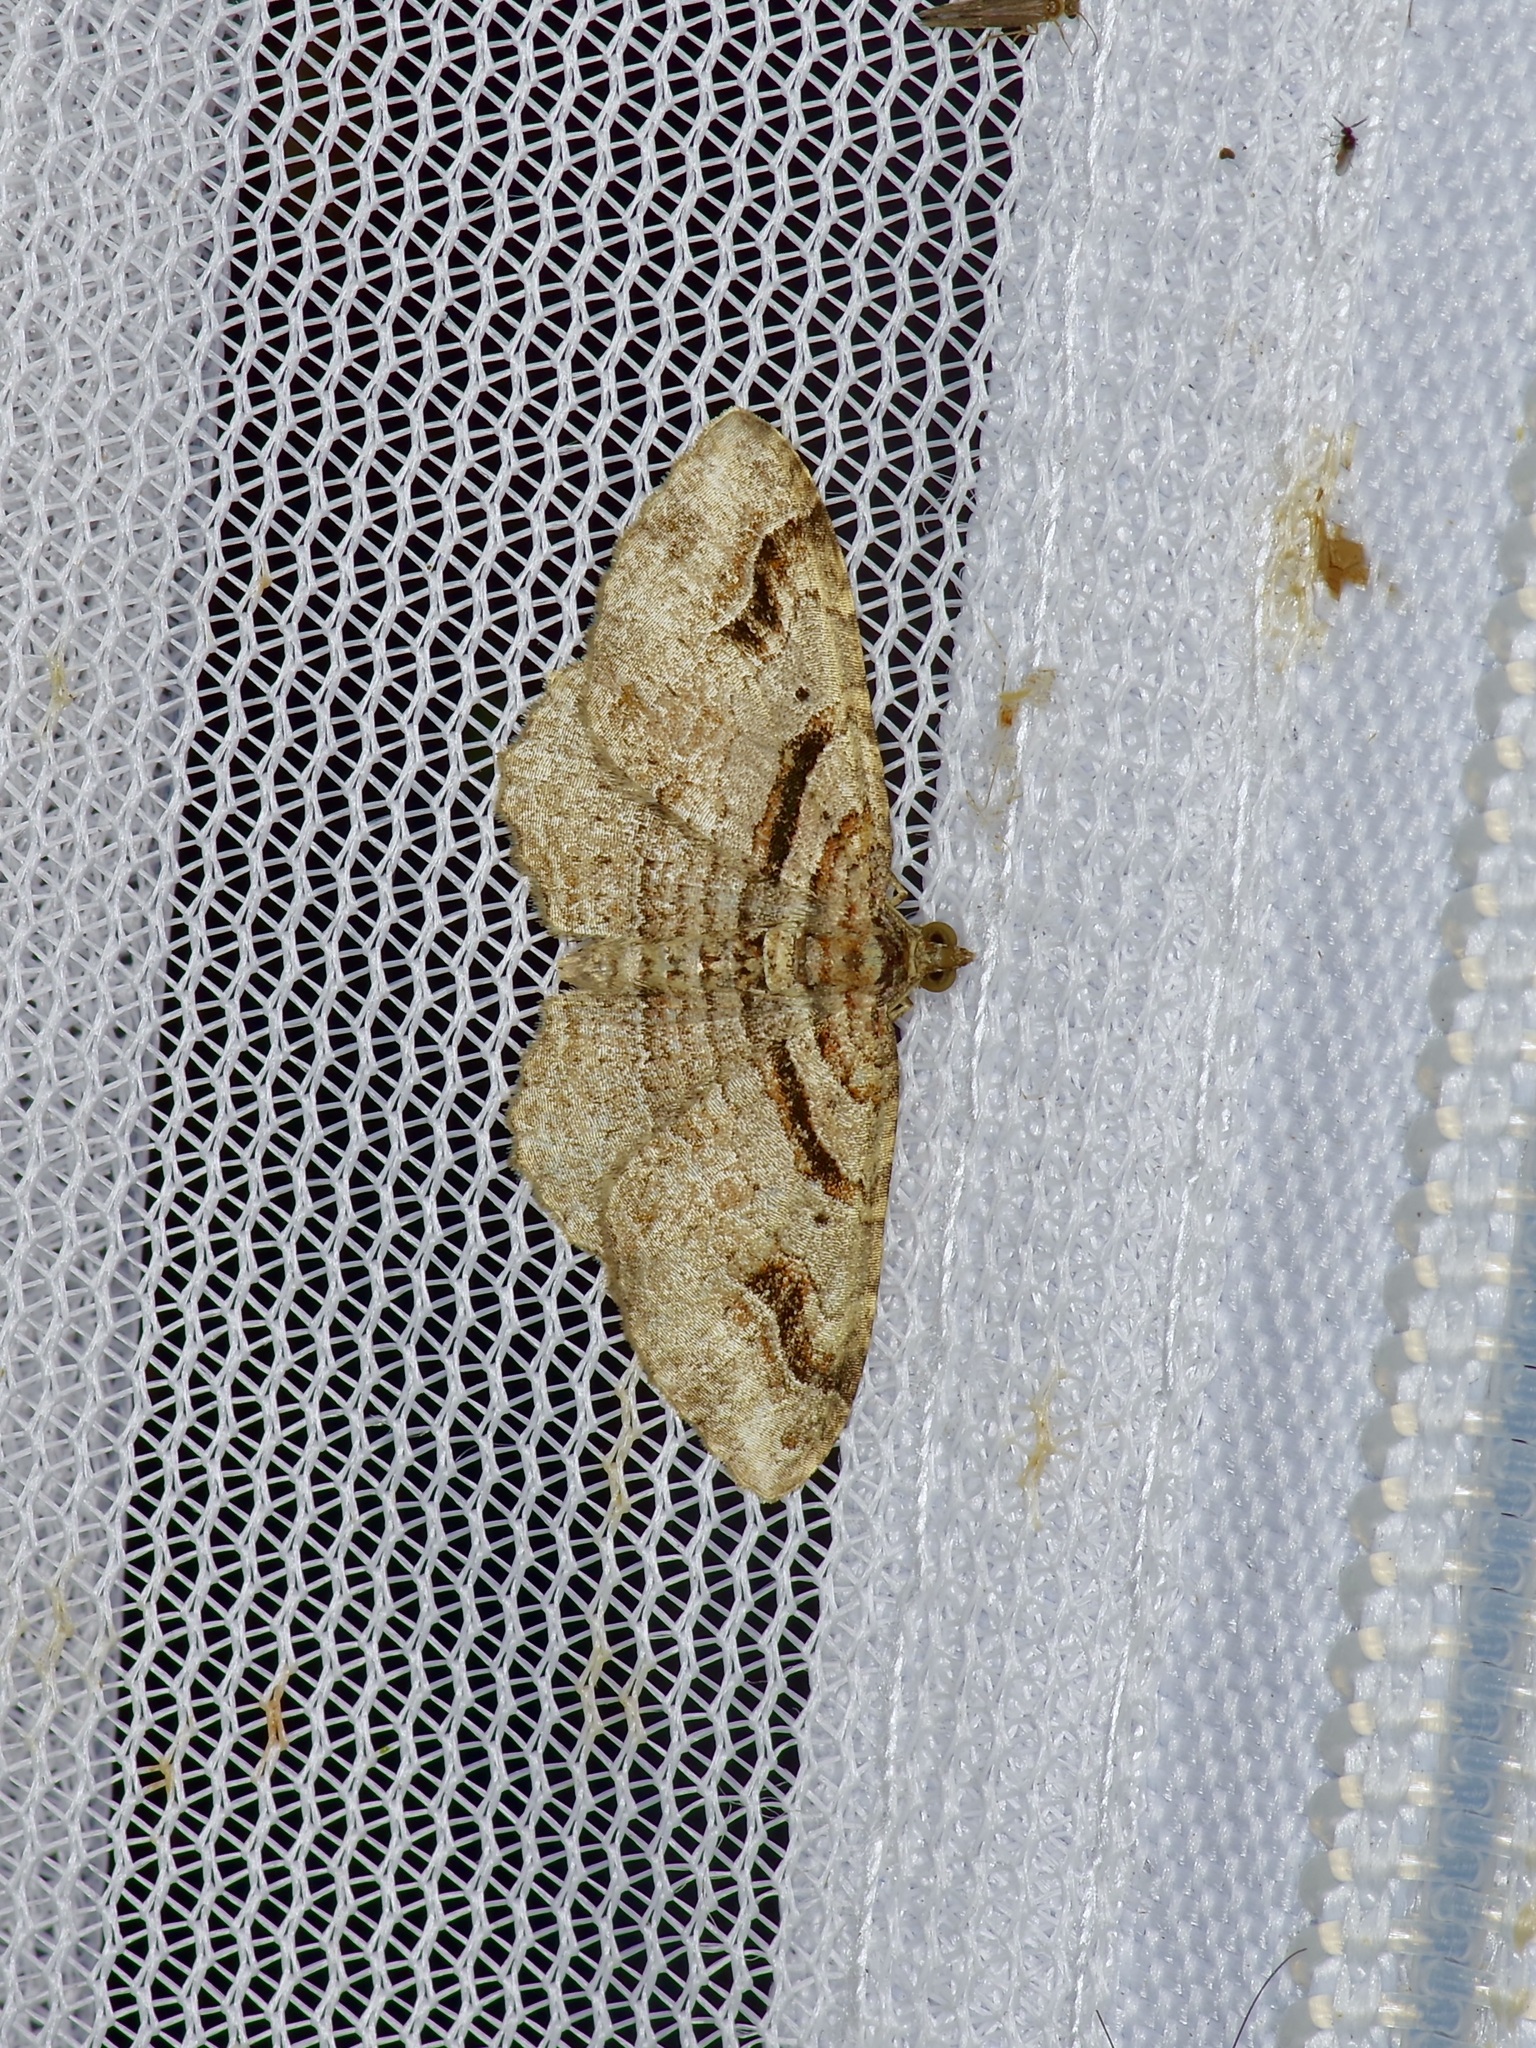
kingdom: Animalia
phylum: Arthropoda
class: Insecta
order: Lepidoptera
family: Geometridae
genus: Costaconvexa
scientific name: Costaconvexa centrostrigaria
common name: Bent-line carpet
